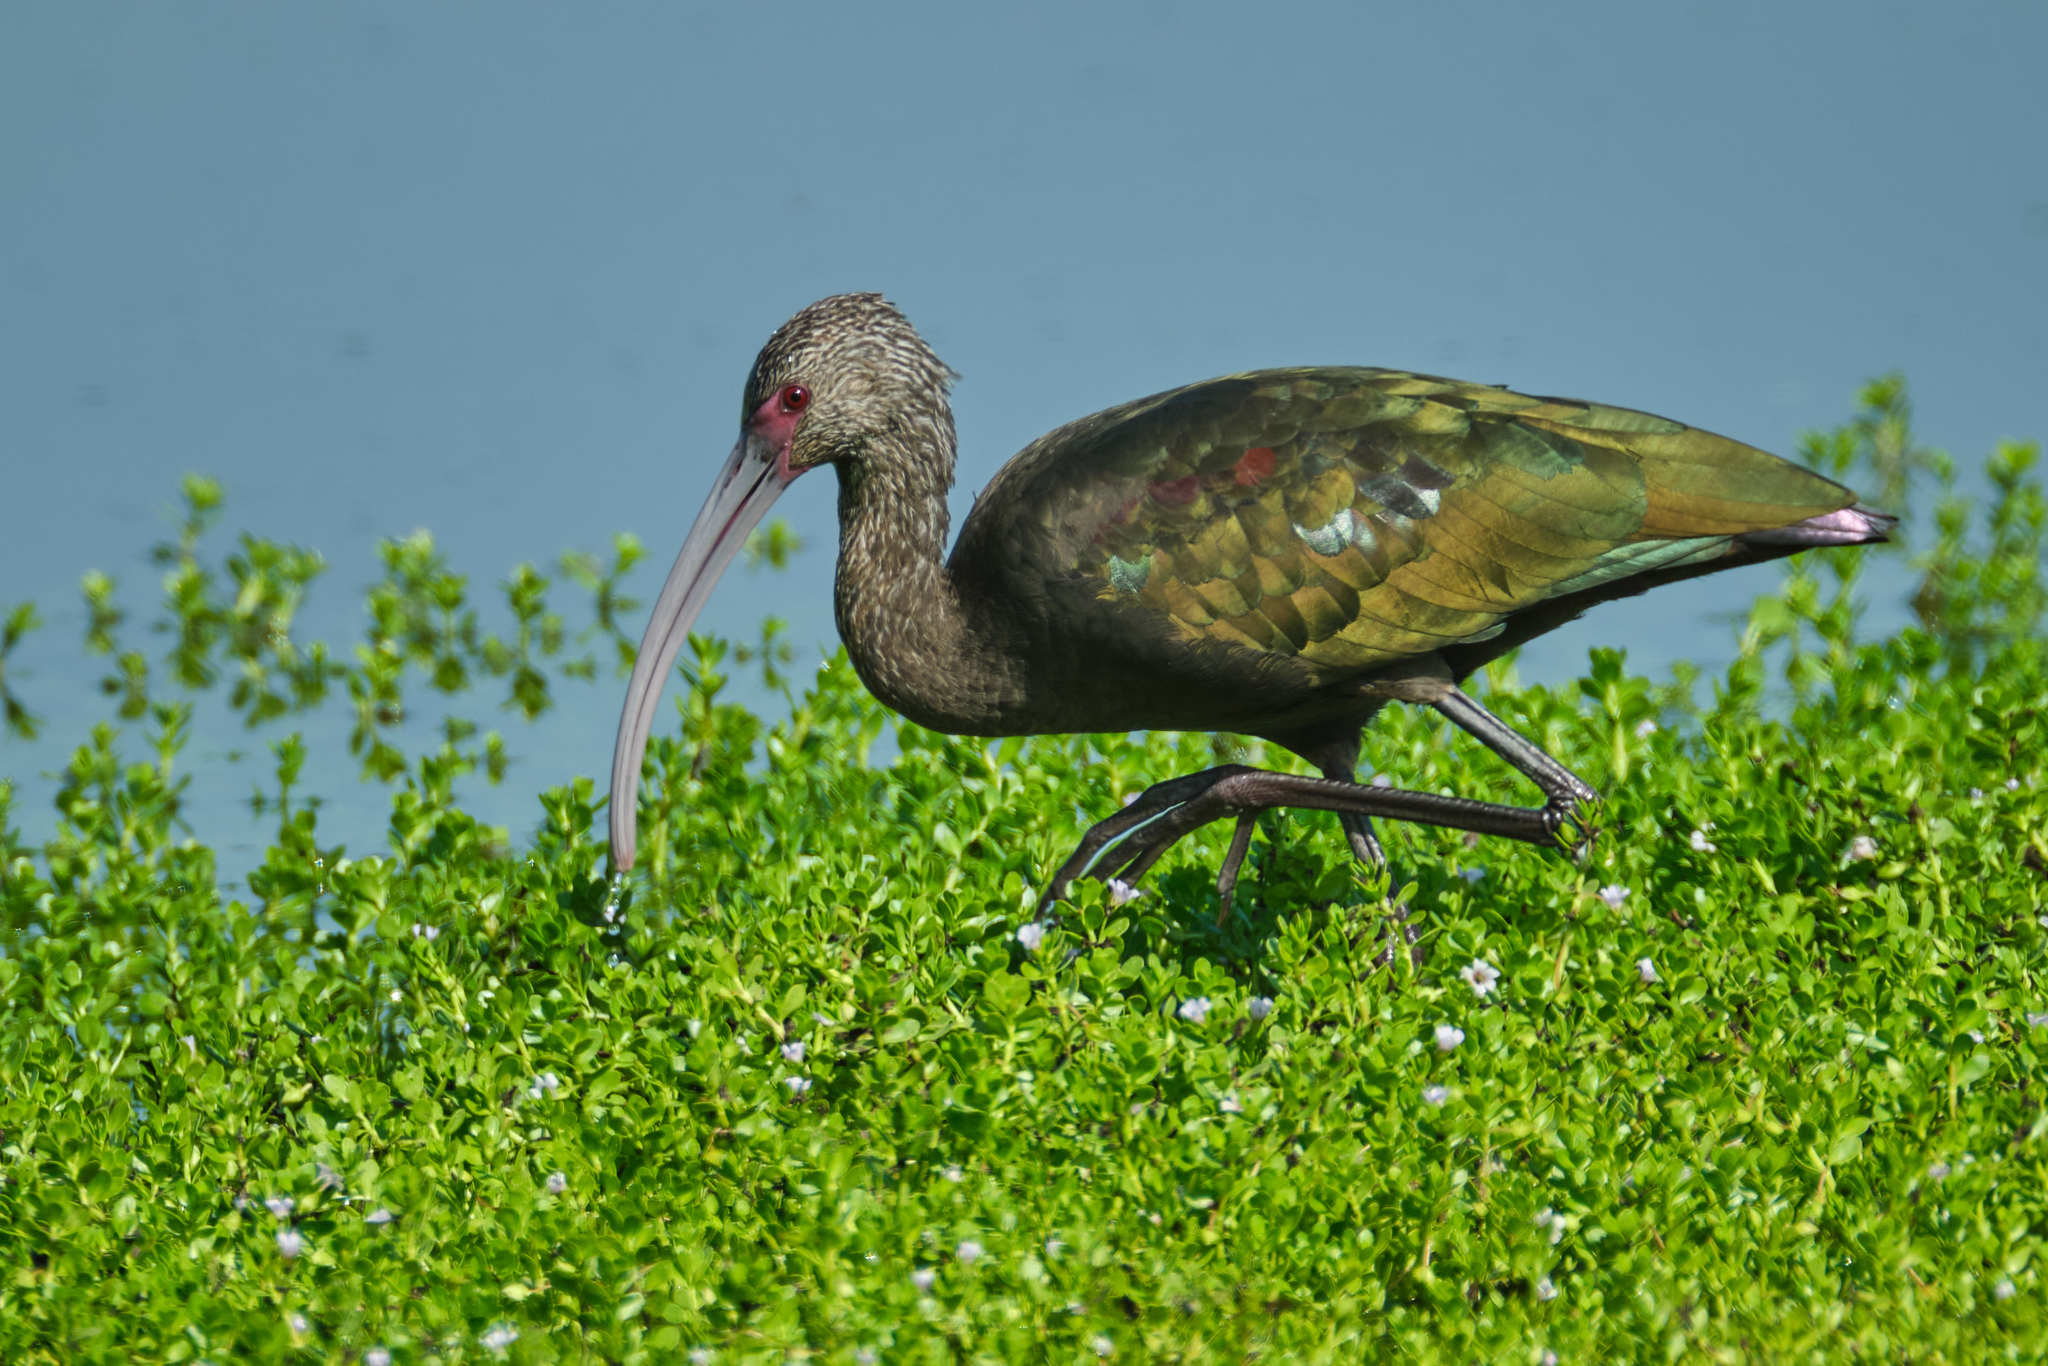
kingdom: Animalia
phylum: Chordata
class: Aves
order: Pelecaniformes
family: Threskiornithidae
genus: Plegadis
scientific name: Plegadis chihi
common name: White-faced ibis
